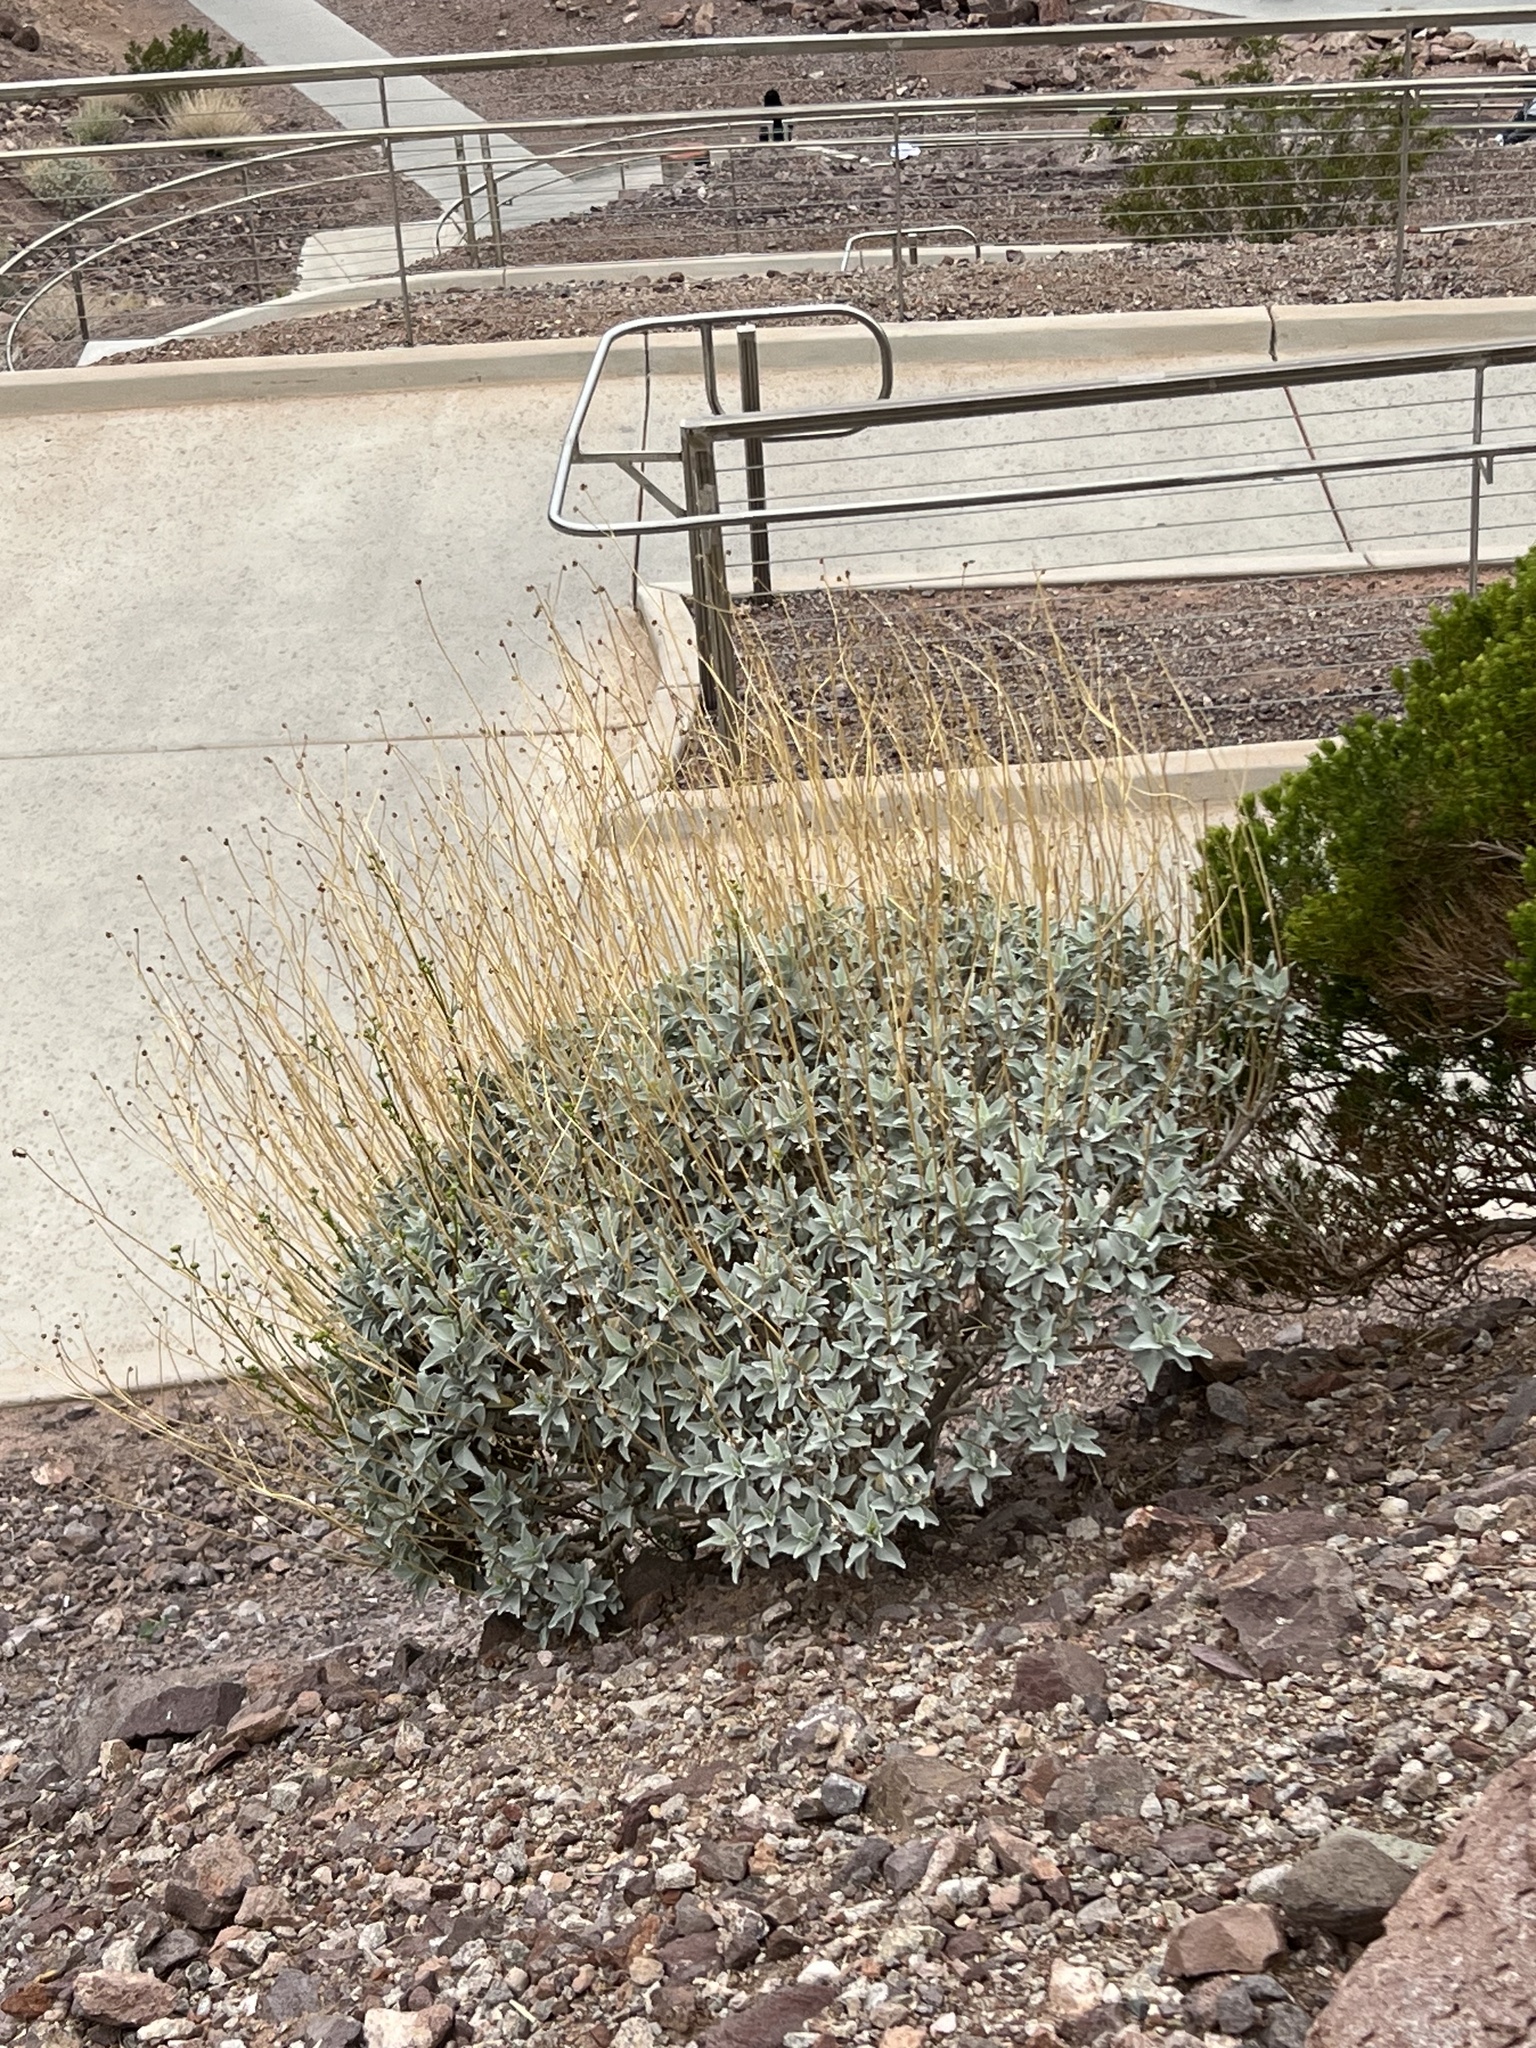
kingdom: Plantae
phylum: Tracheophyta
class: Magnoliopsida
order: Asterales
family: Asteraceae
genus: Encelia
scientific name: Encelia farinosa
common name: Brittlebush
